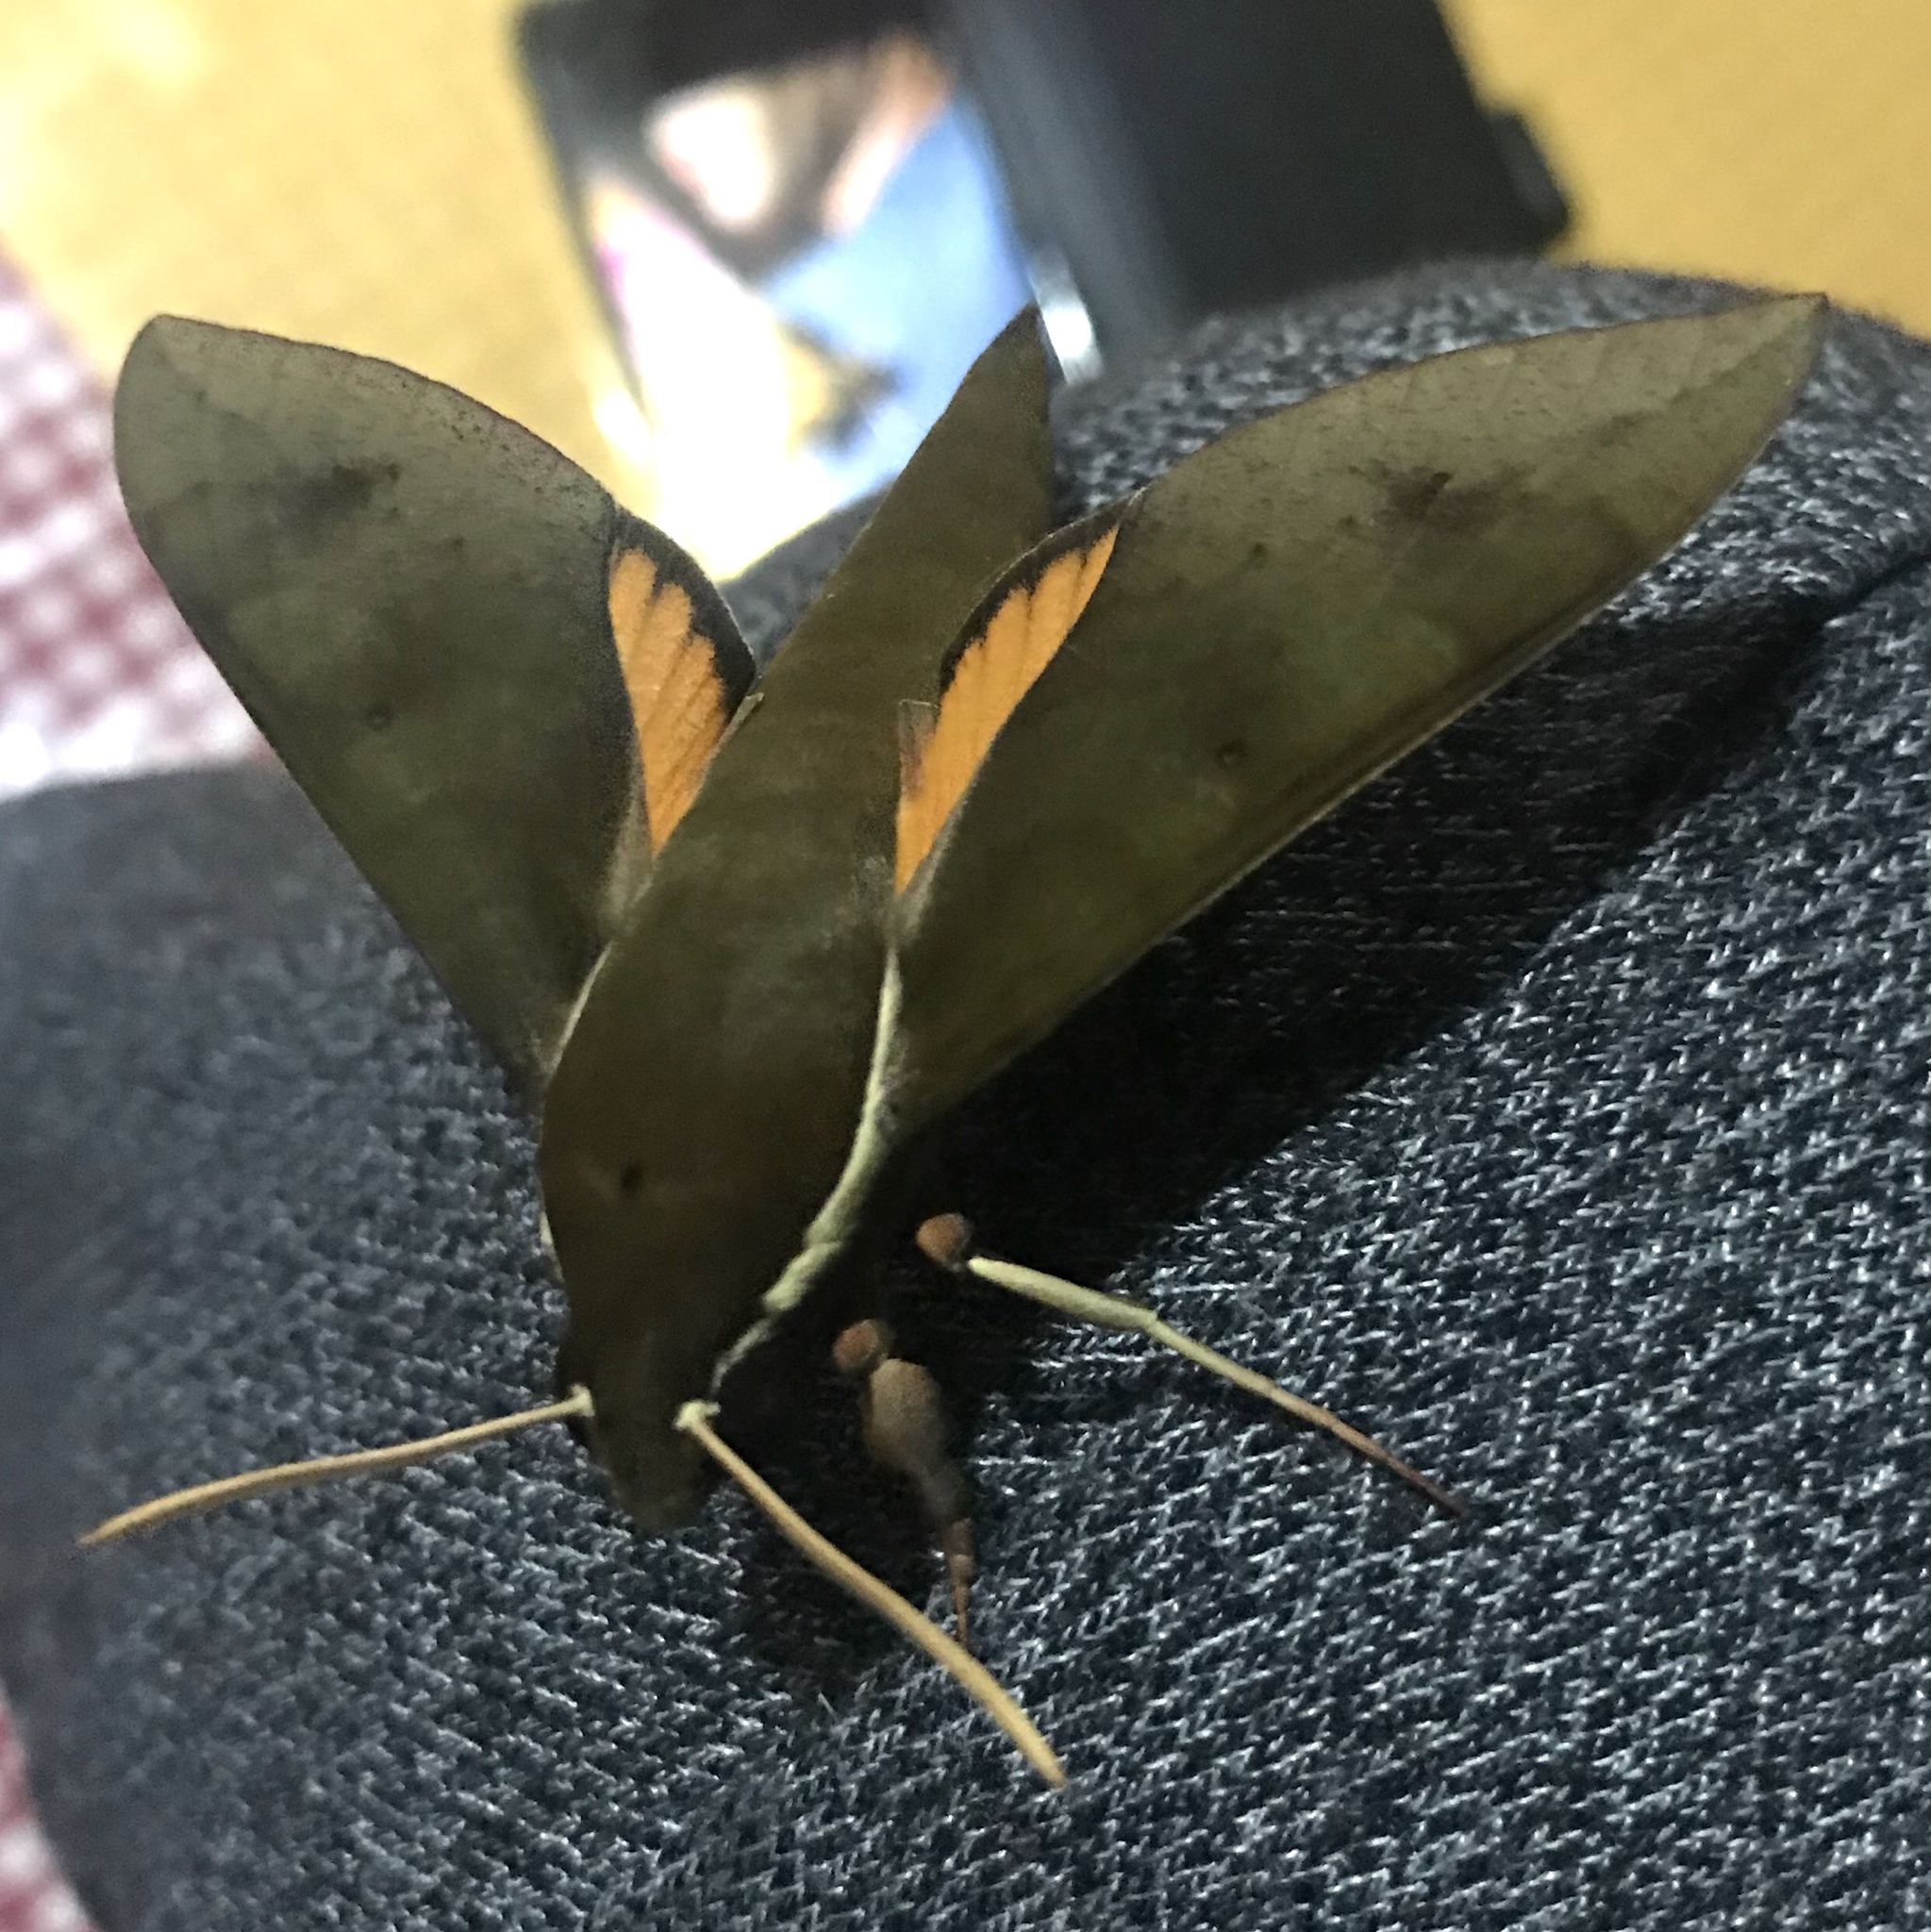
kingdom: Animalia
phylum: Arthropoda
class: Insecta
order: Lepidoptera
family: Sphingidae
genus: Gnathothlibus
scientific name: Gnathothlibus eras
